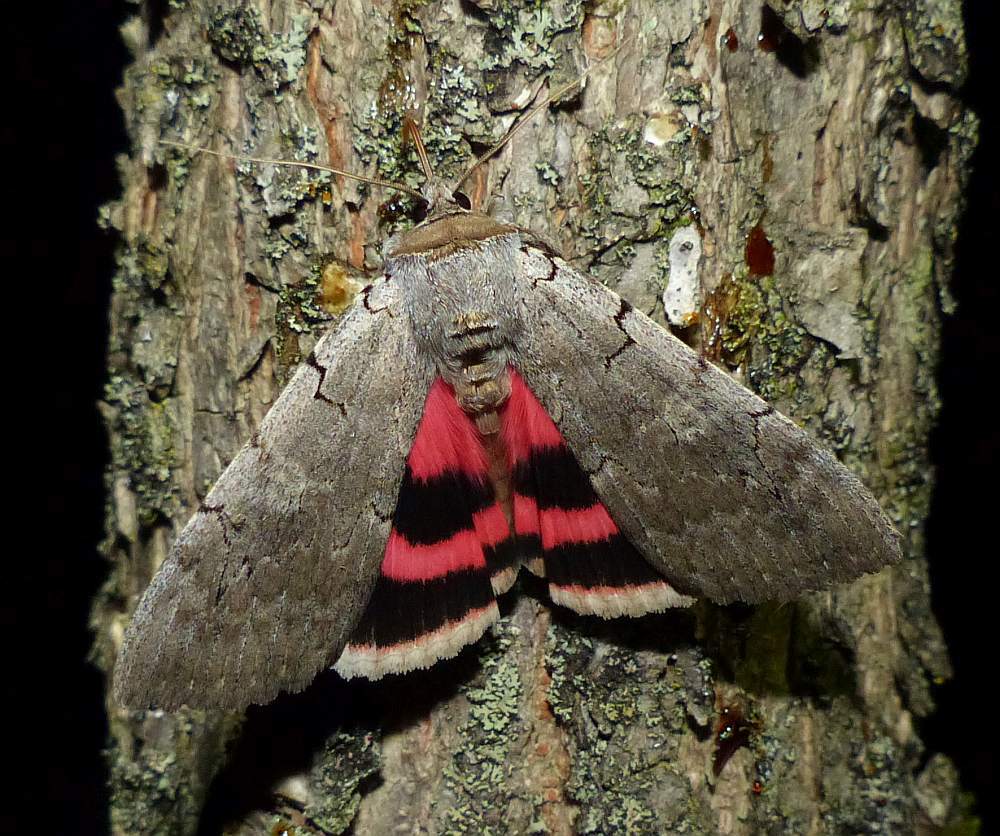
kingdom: Animalia
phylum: Arthropoda
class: Insecta
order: Lepidoptera
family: Erebidae
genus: Catocala
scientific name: Catocala concumbens
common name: Pink underwing
